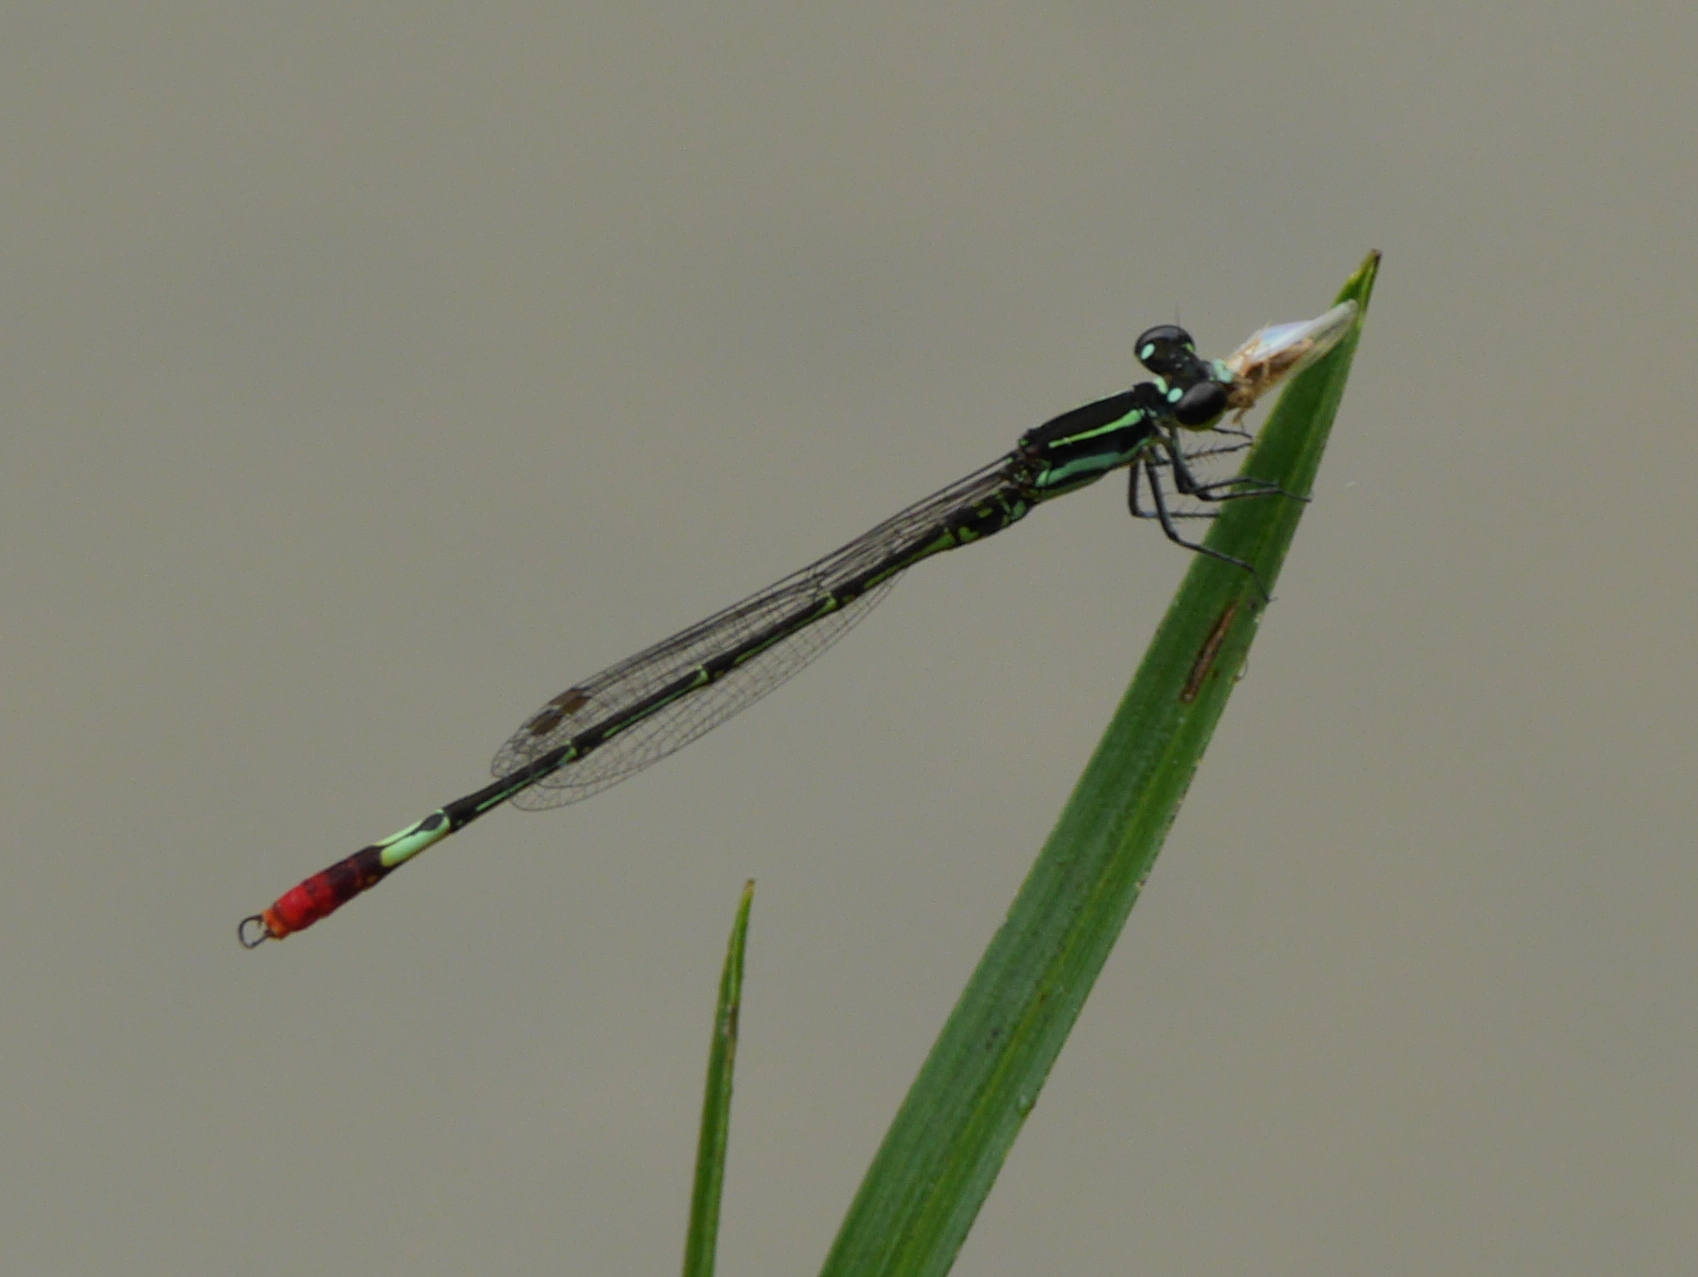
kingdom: Animalia
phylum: Arthropoda
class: Insecta
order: Odonata
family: Coenagrionidae
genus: Agriocnemis
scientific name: Agriocnemis forcipata
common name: Forceps wisp
